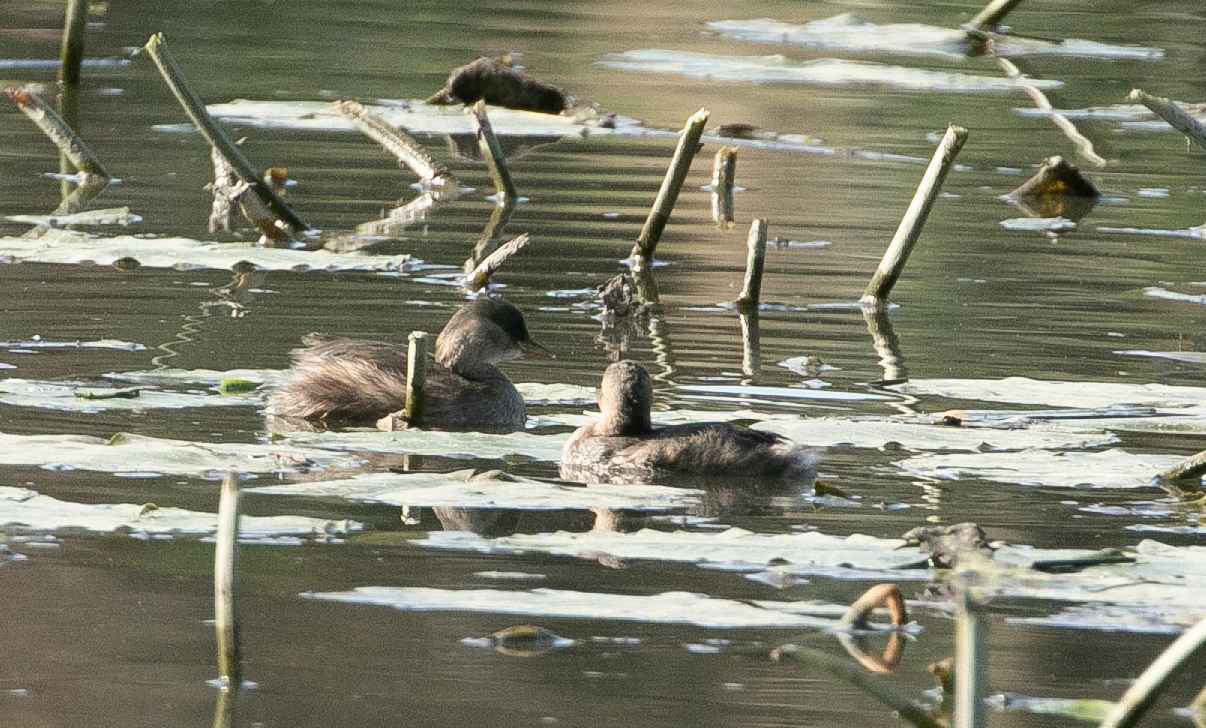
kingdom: Animalia
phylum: Chordata
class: Aves
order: Podicipediformes
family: Podicipedidae
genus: Tachybaptus
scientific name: Tachybaptus ruficollis
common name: Little grebe
